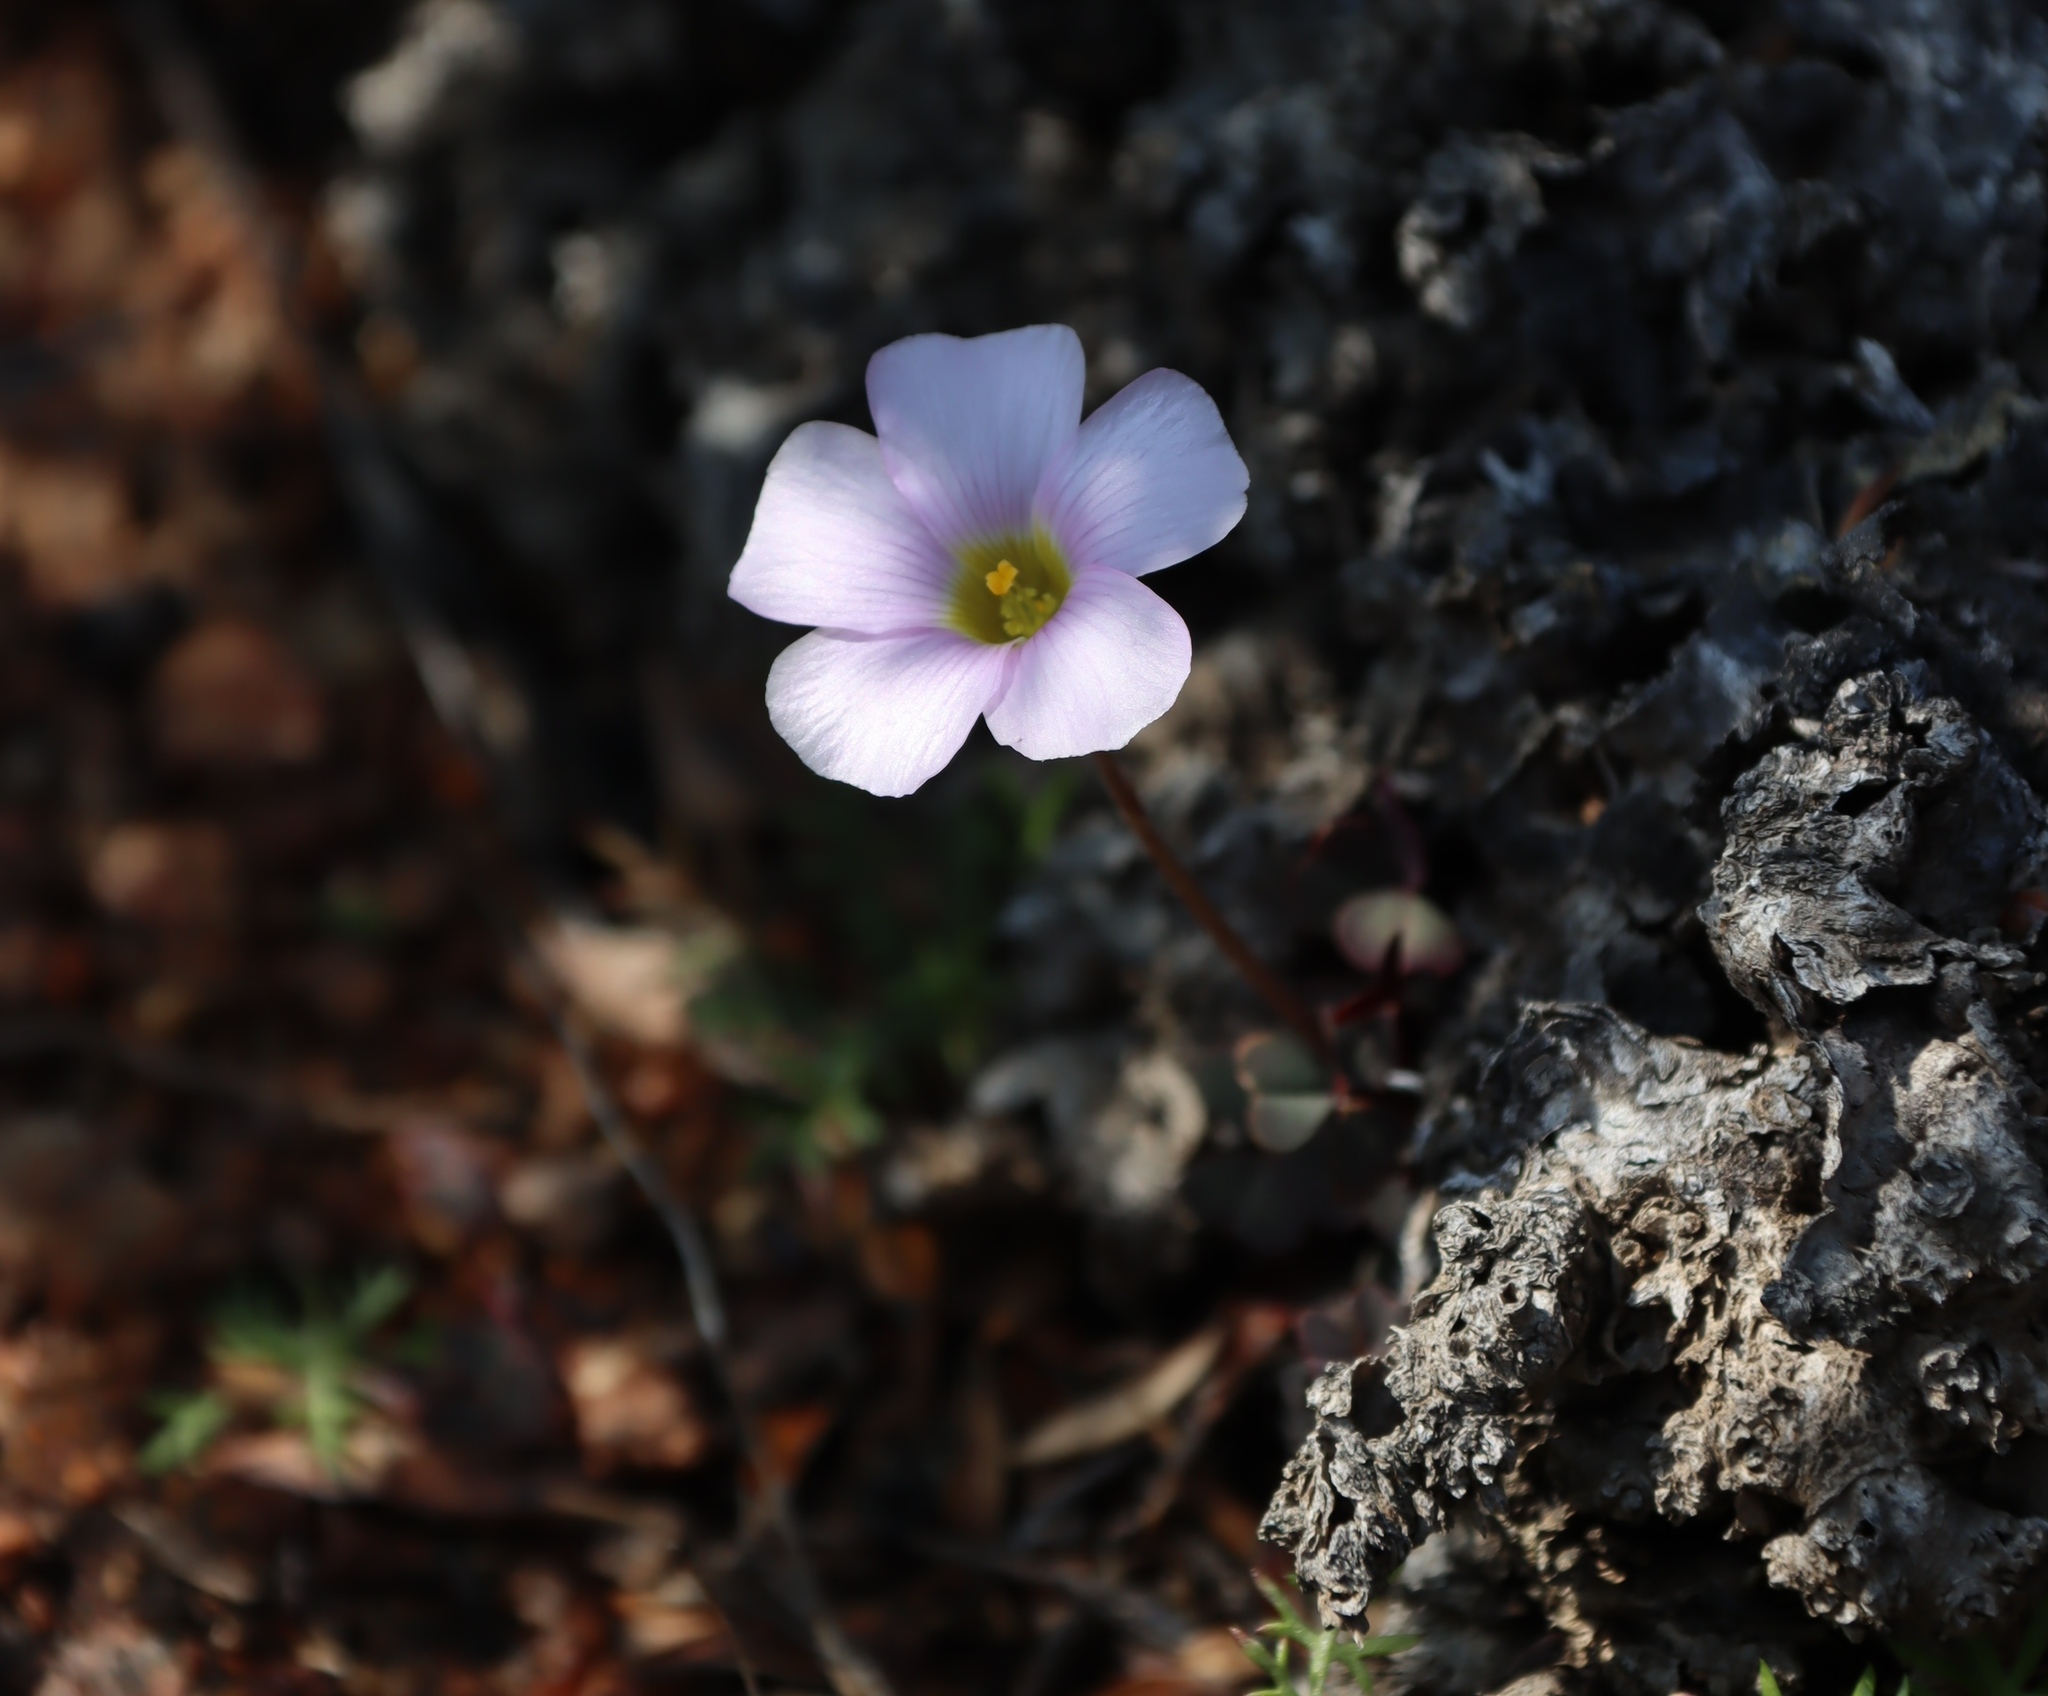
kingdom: Plantae
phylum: Tracheophyta
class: Magnoliopsida
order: Oxalidales
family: Oxalidaceae
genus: Oxalis
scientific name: Oxalis obtusa
